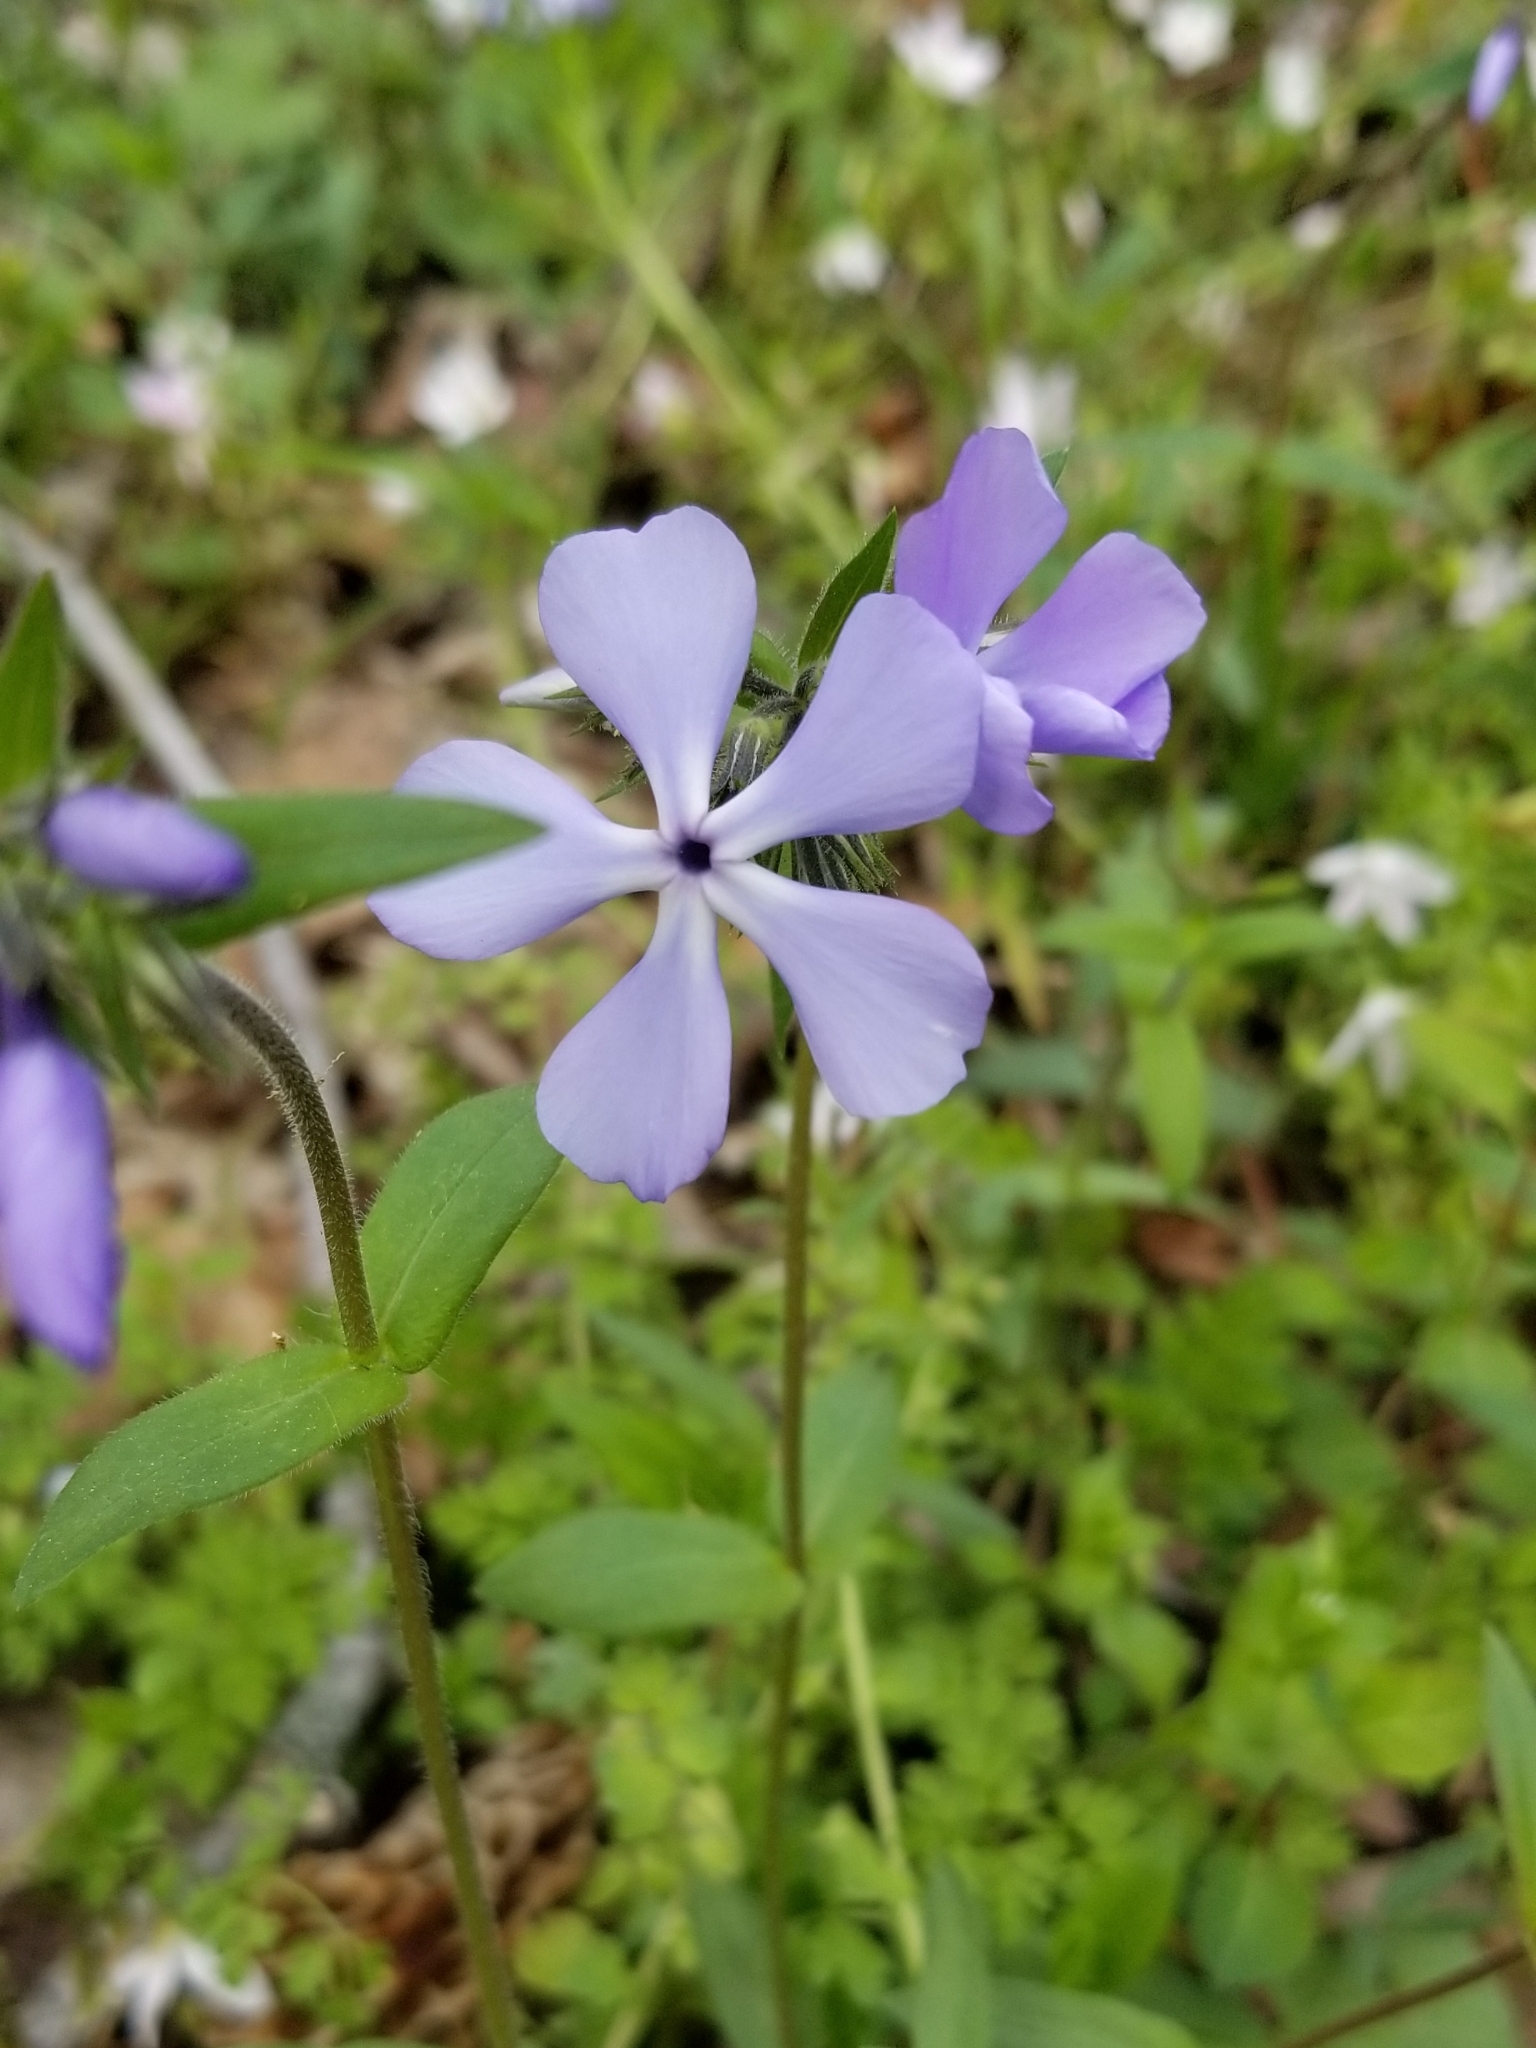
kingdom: Plantae
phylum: Tracheophyta
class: Magnoliopsida
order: Ericales
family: Polemoniaceae
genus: Phlox
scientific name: Phlox divaricata
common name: Blue phlox
